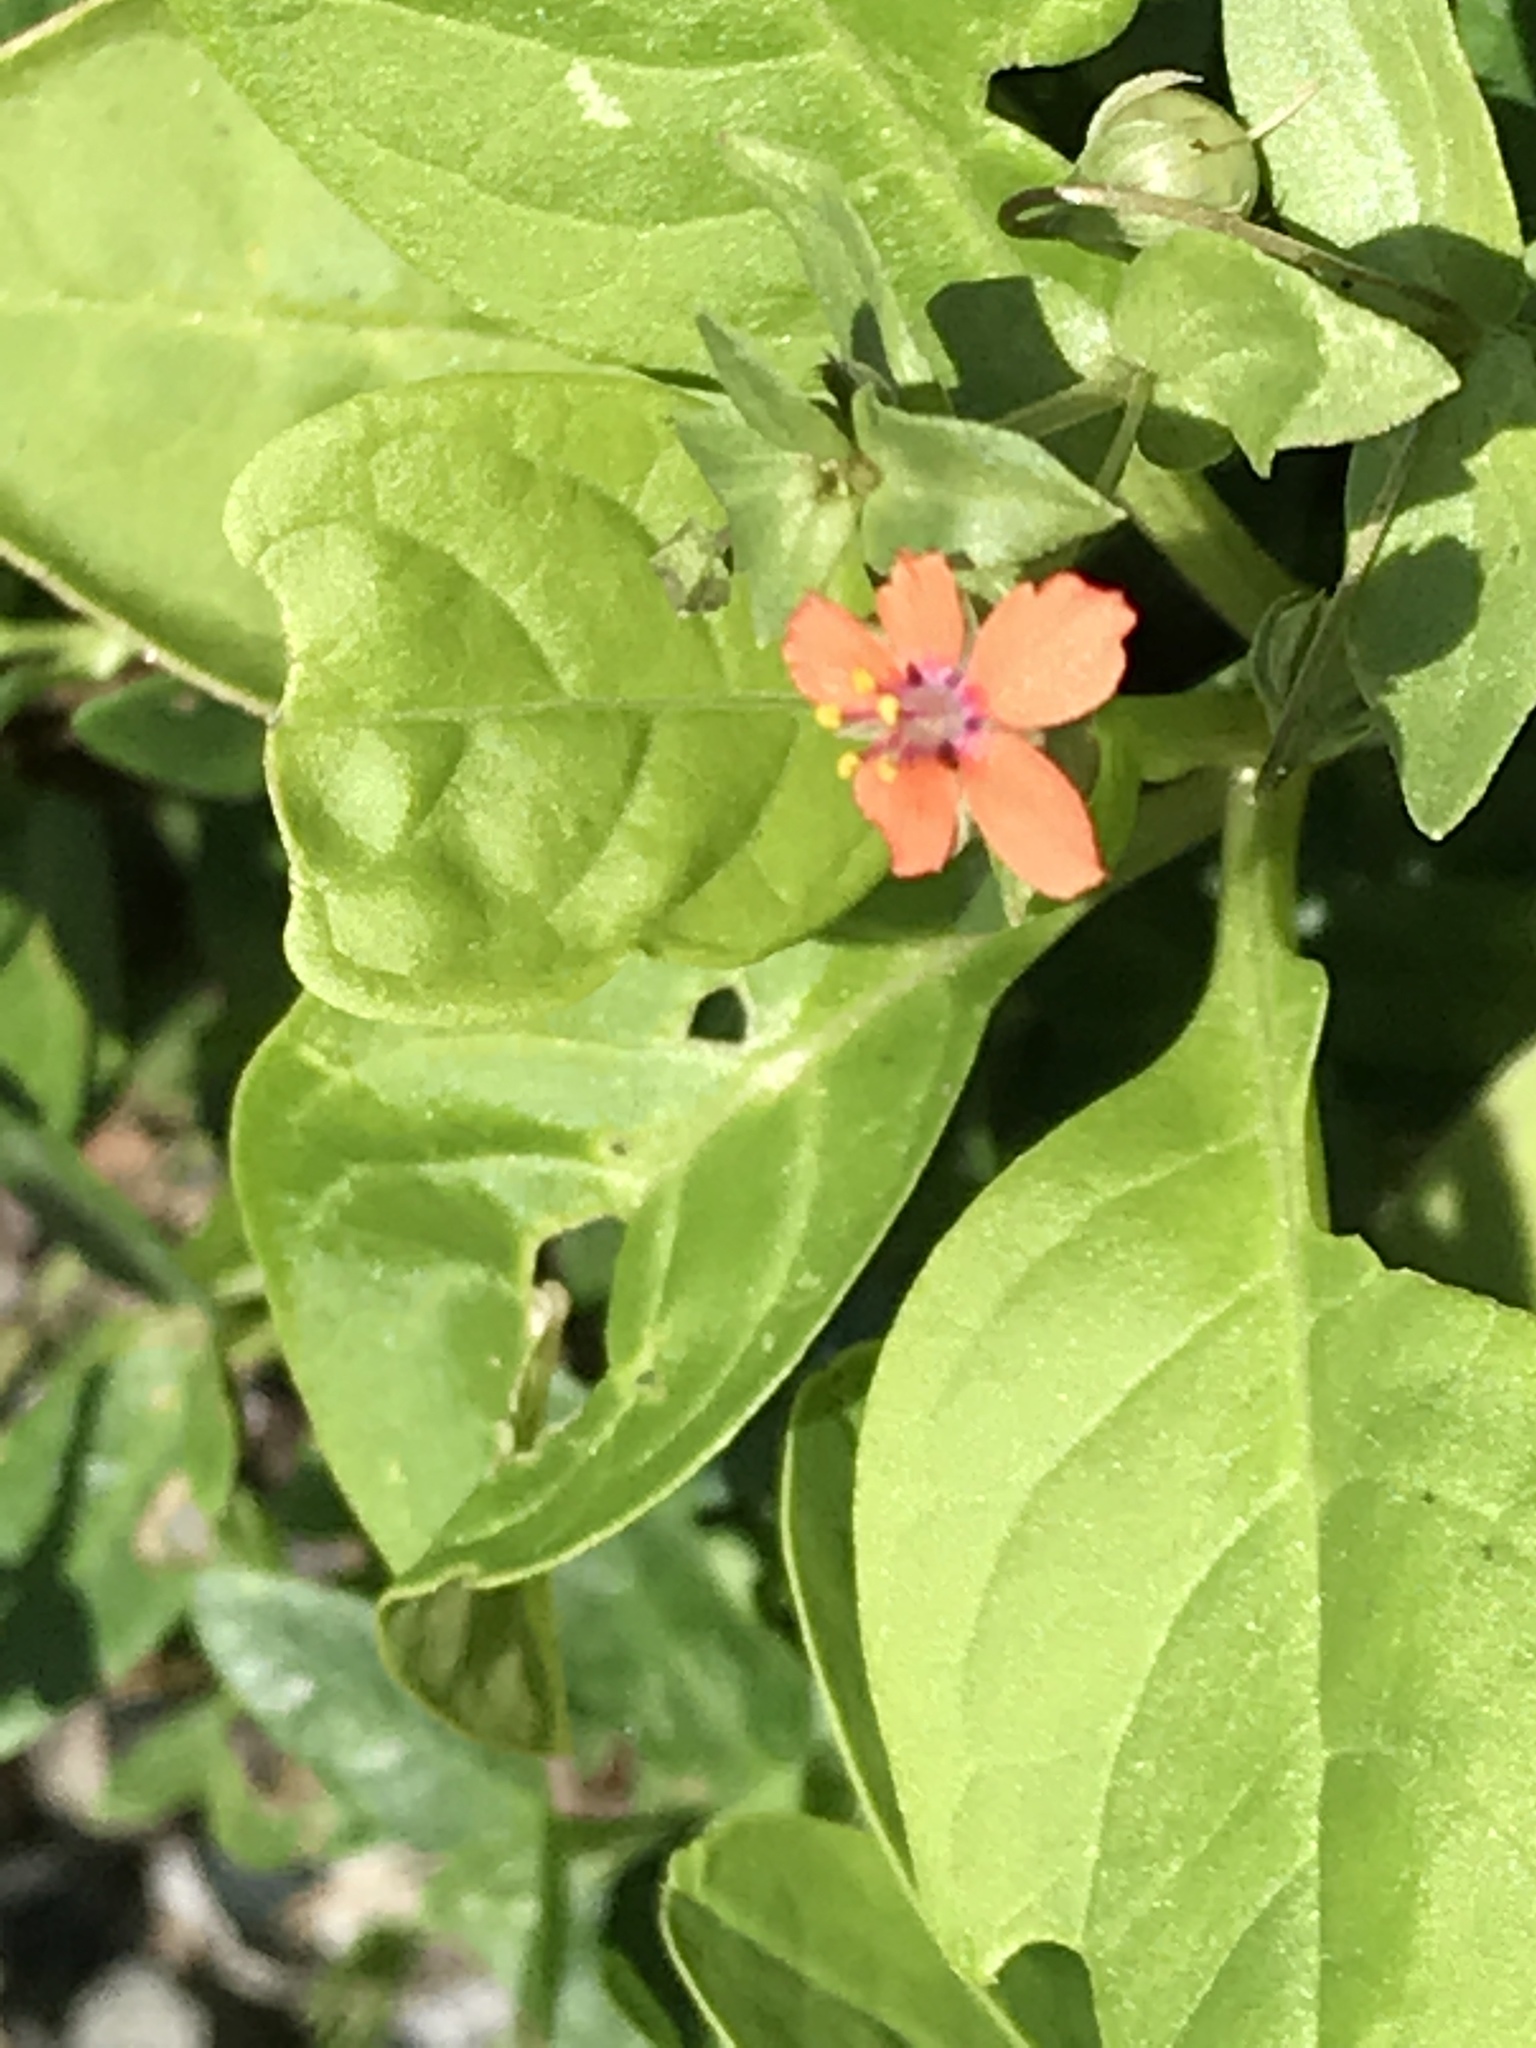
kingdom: Plantae
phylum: Tracheophyta
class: Magnoliopsida
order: Ericales
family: Primulaceae
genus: Lysimachia
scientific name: Lysimachia arvensis
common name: Scarlet pimpernel
